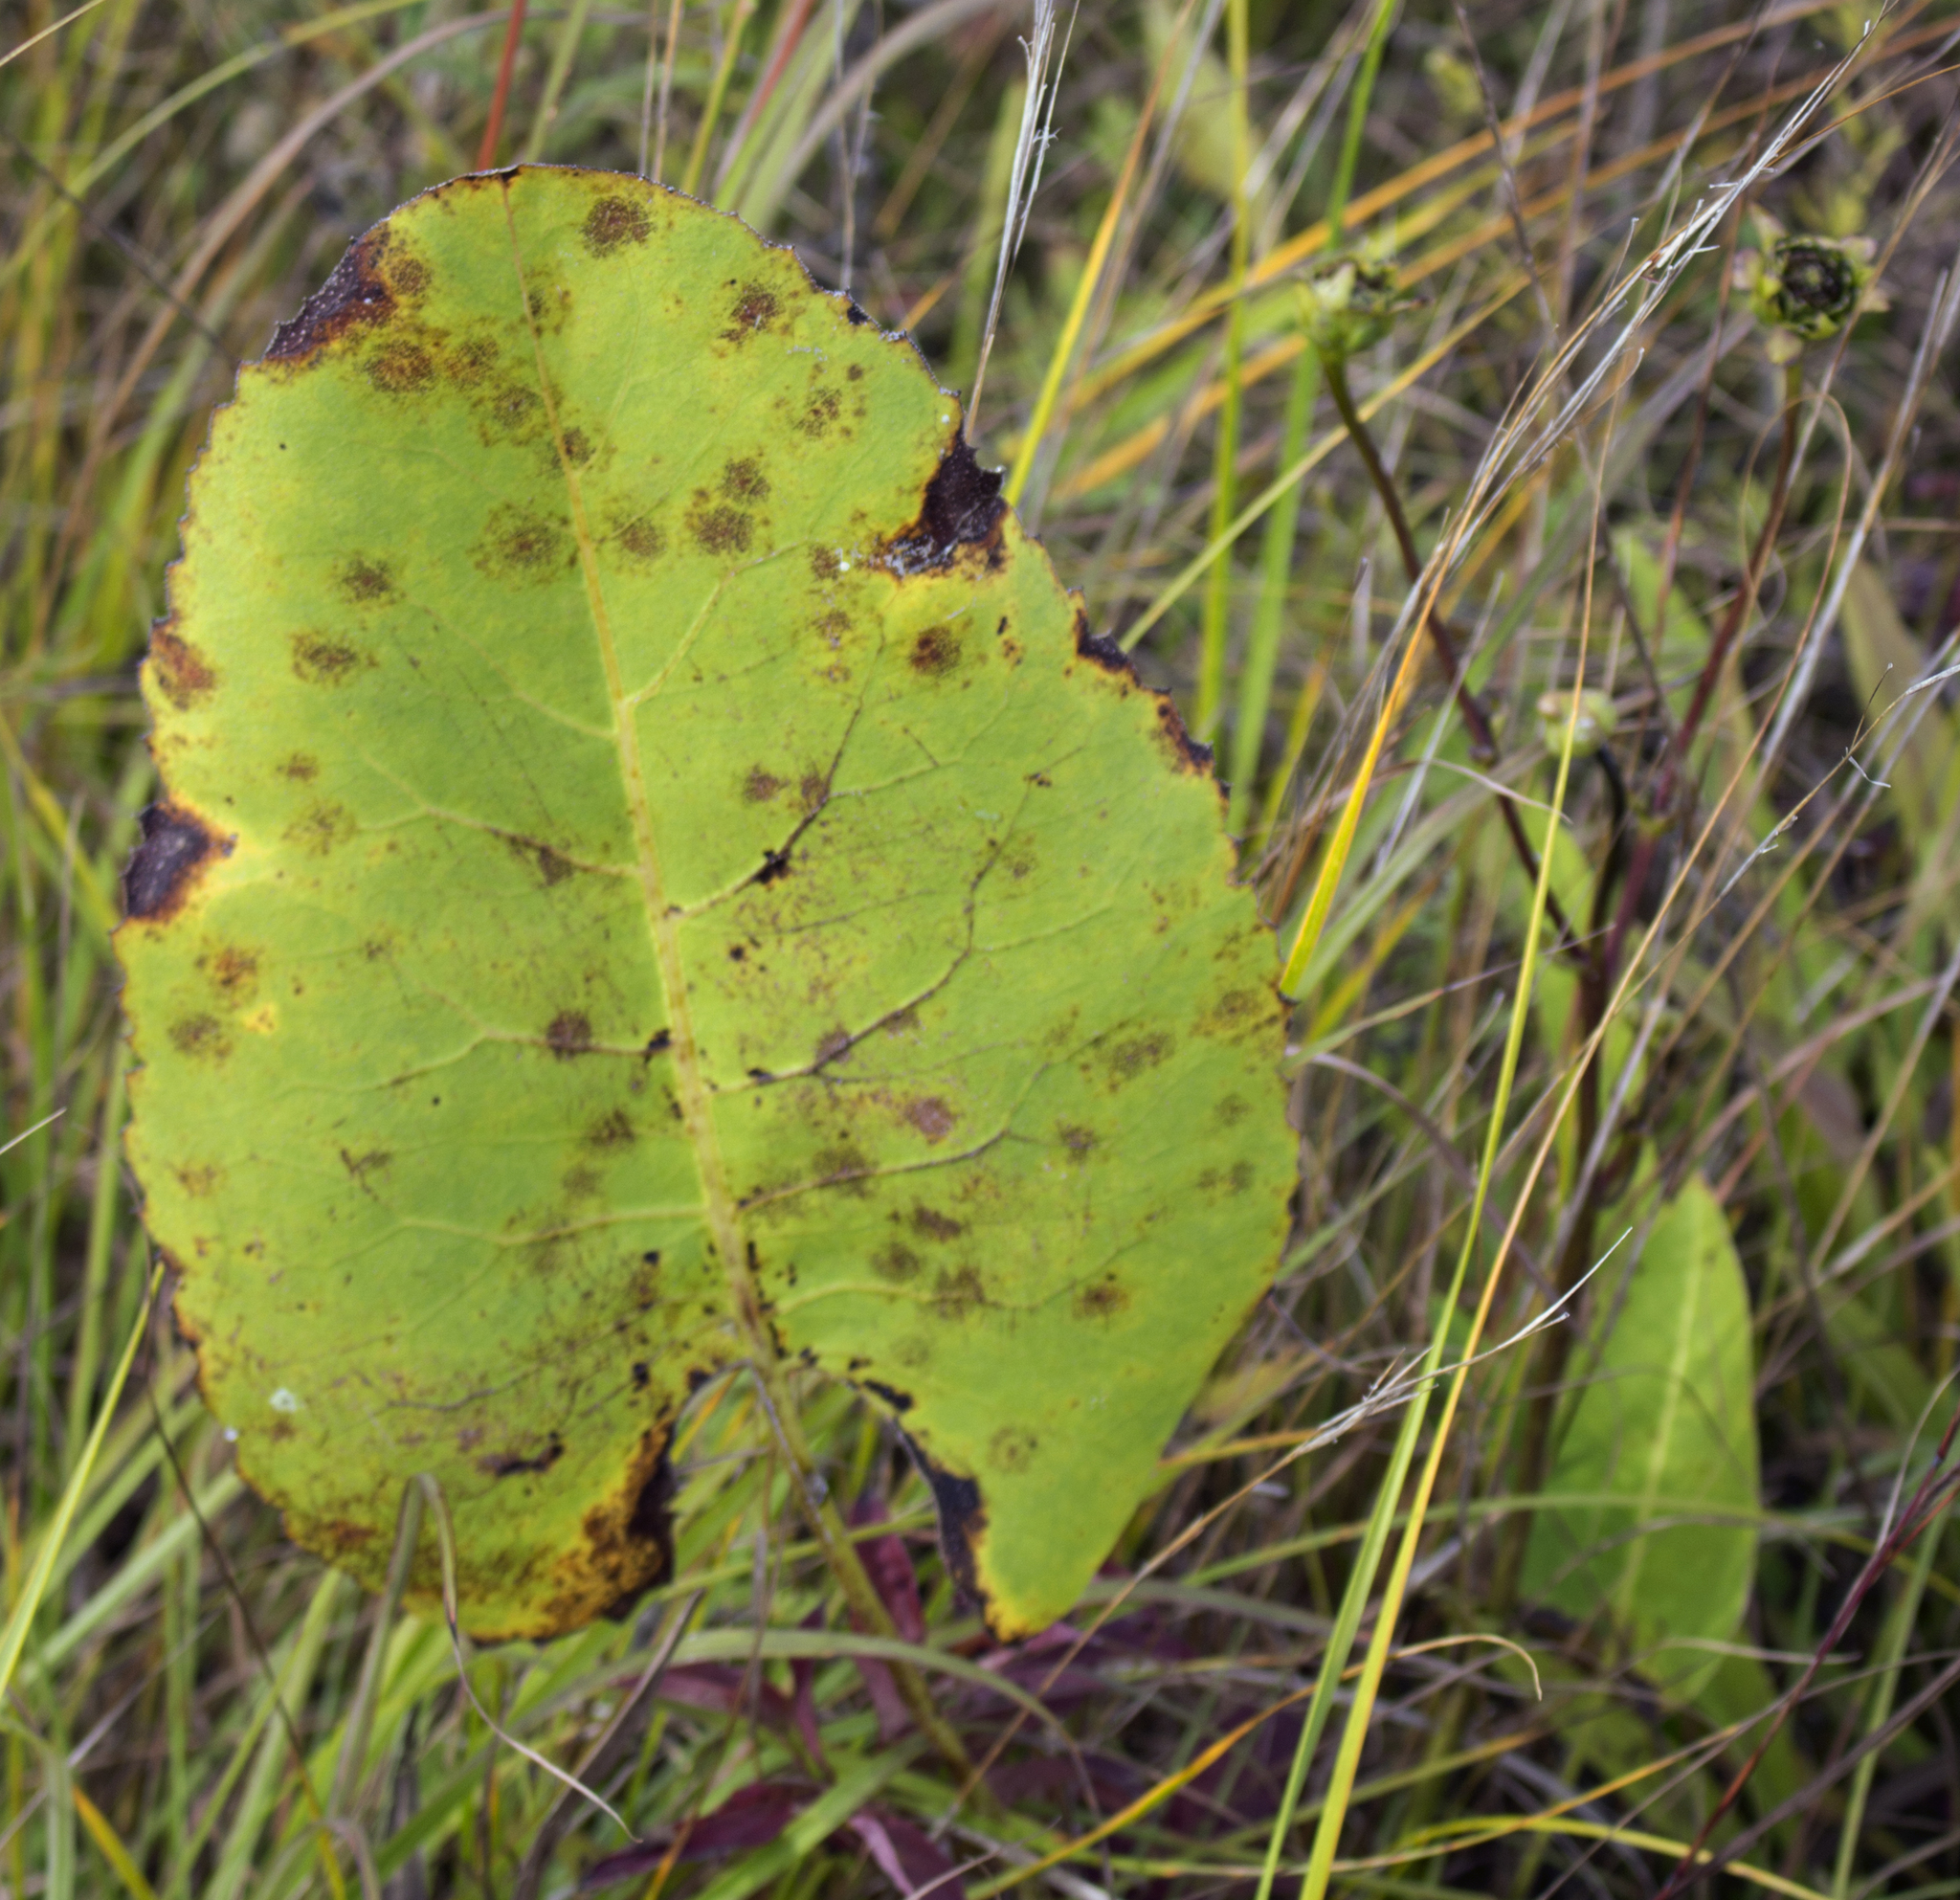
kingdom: Plantae
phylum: Tracheophyta
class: Magnoliopsida
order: Asterales
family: Asteraceae
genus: Silphium
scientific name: Silphium terebinthinaceum
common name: Basal-leaf rosinweed
